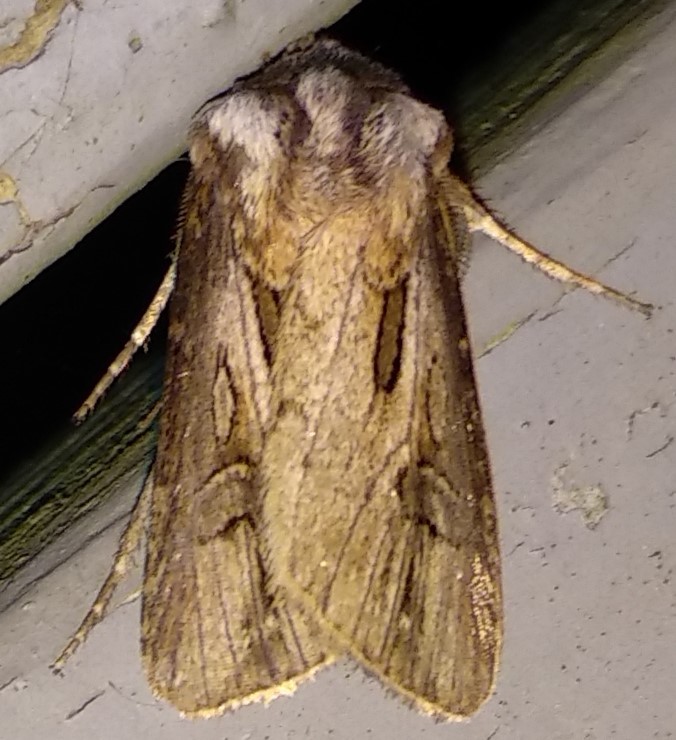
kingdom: Animalia
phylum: Arthropoda
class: Insecta
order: Lepidoptera
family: Noctuidae
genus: Agrotis
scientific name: Agrotis venerabilis
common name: Venerable dart
